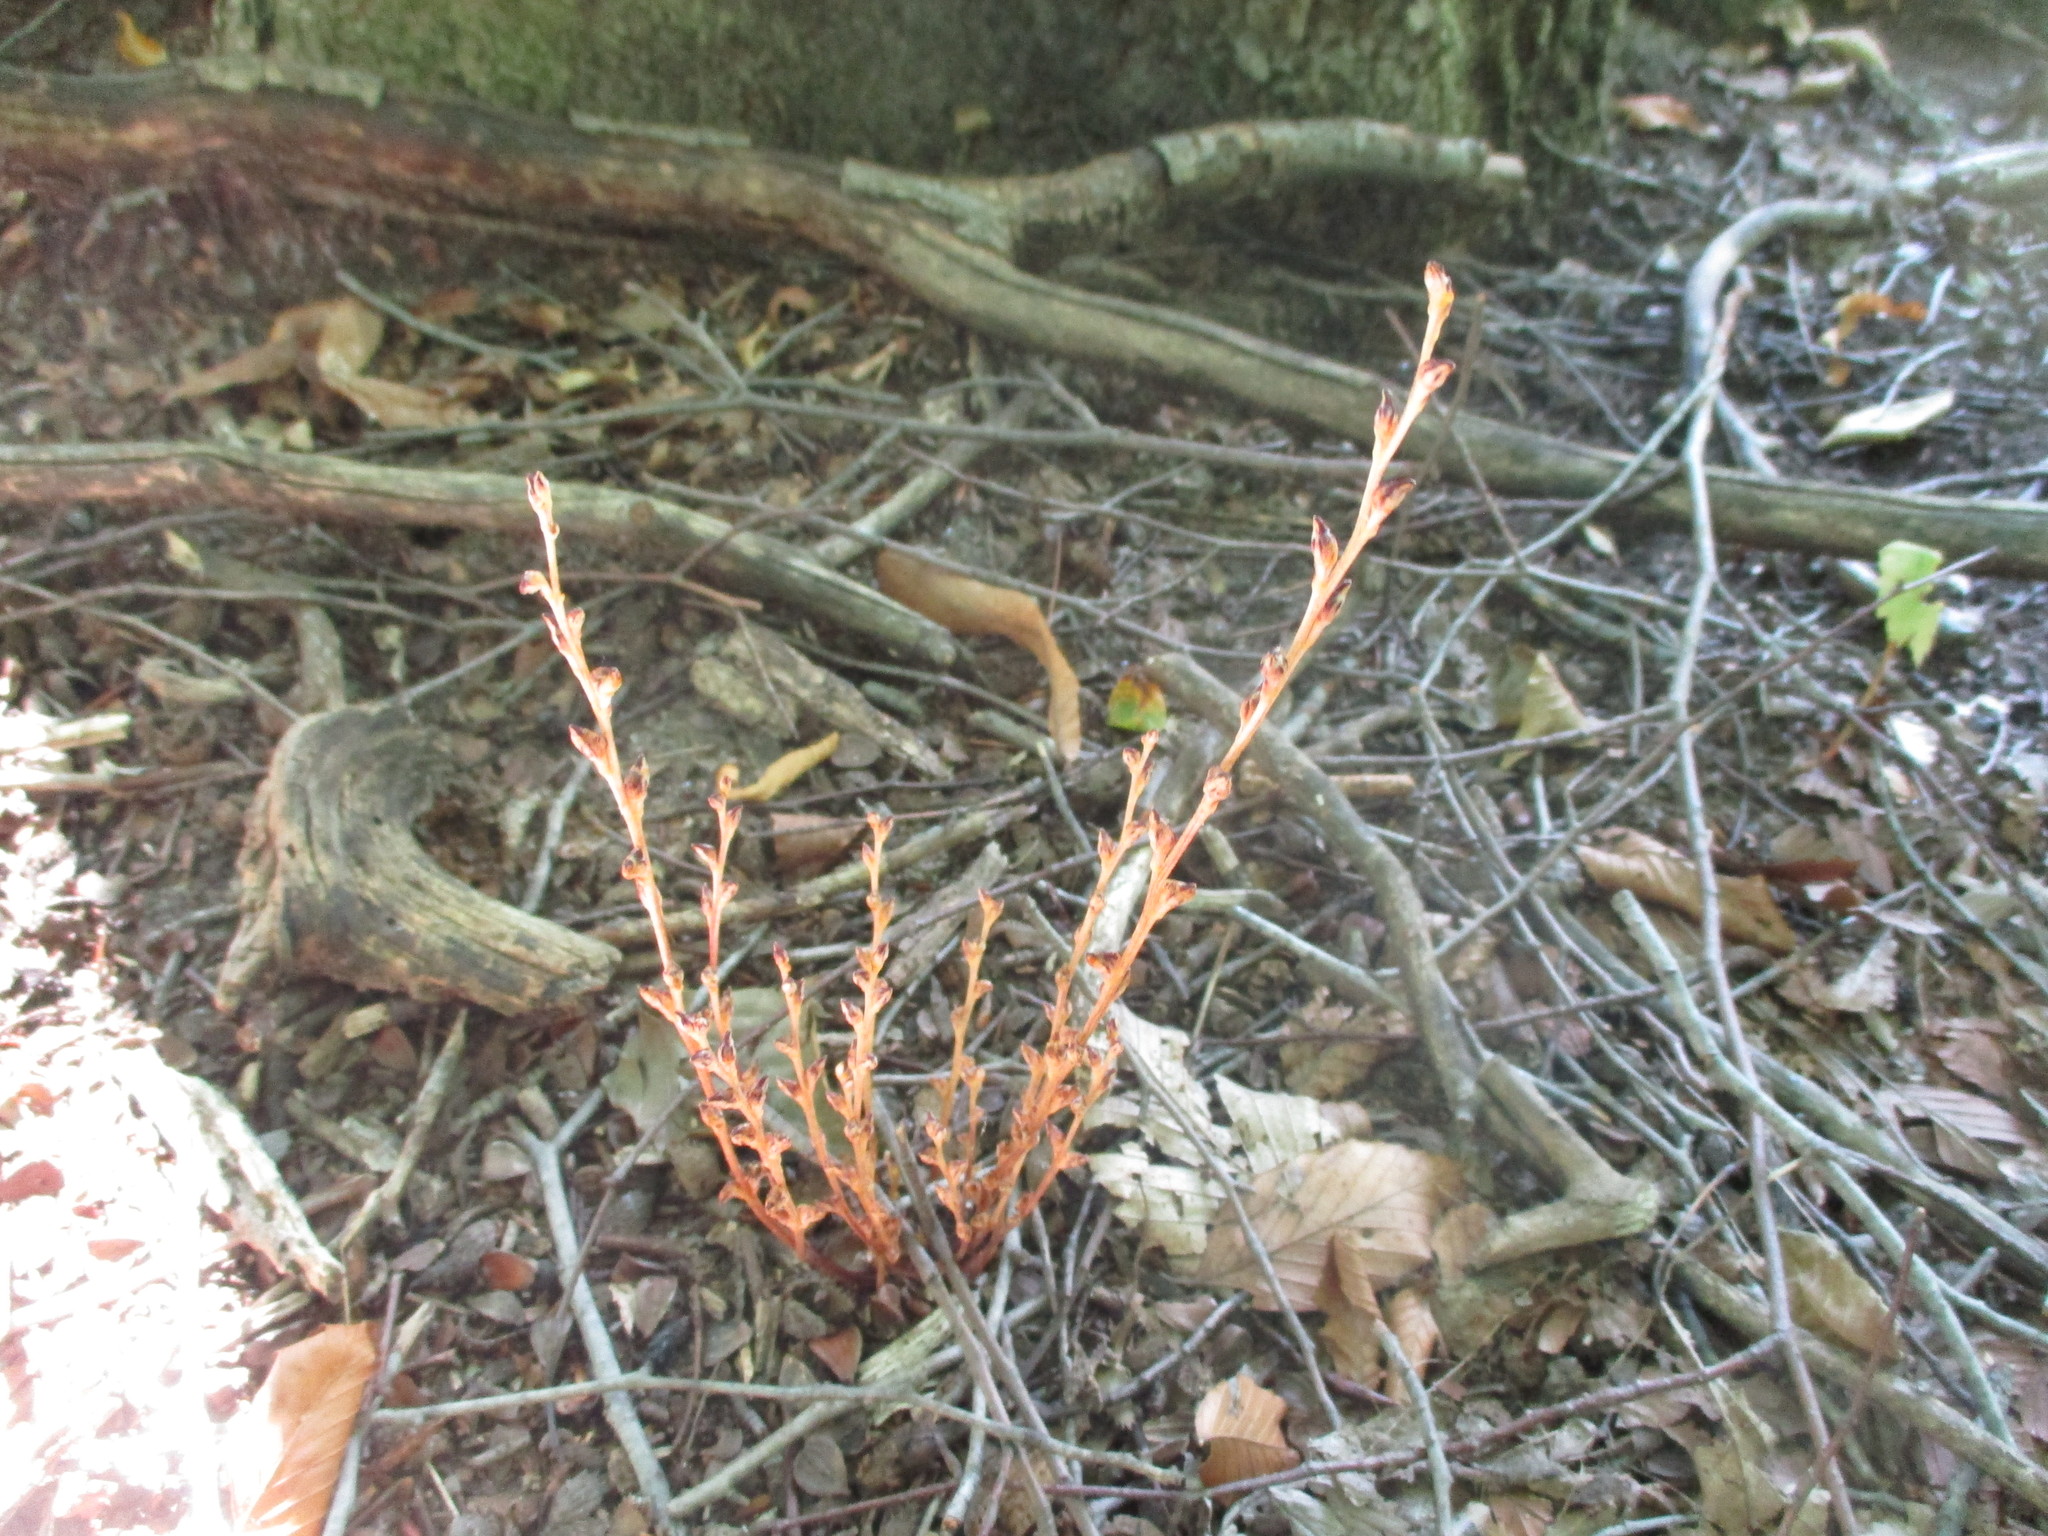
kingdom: Plantae
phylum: Tracheophyta
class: Magnoliopsida
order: Lamiales
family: Orobanchaceae
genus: Epifagus
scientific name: Epifagus virginiana
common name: Beechdrops
